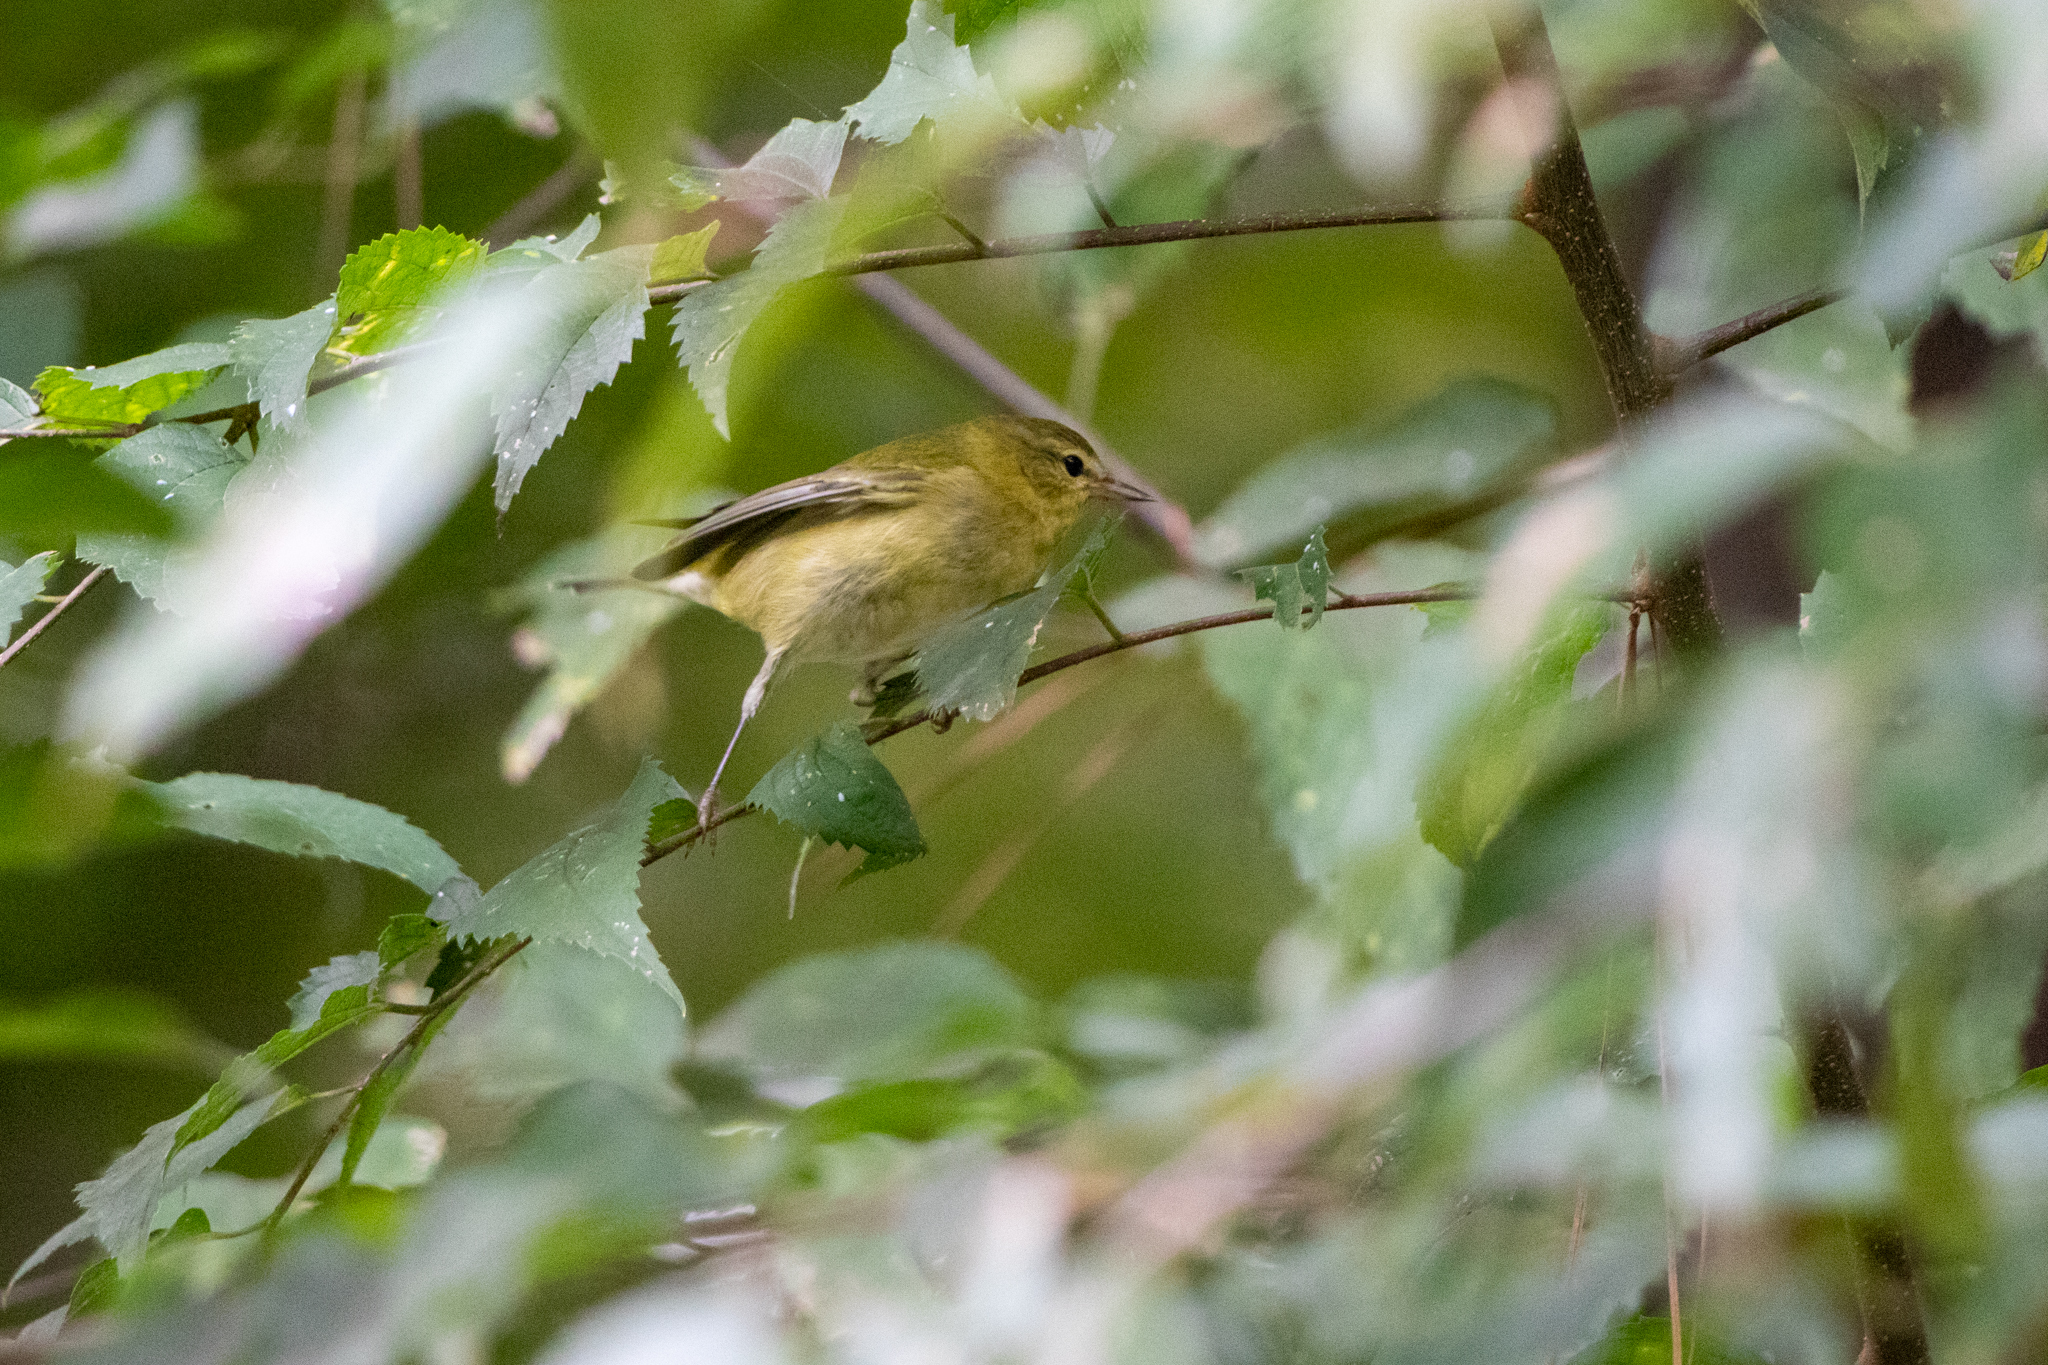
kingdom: Animalia
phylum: Chordata
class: Aves
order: Passeriformes
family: Parulidae
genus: Leiothlypis
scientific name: Leiothlypis peregrina
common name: Tennessee warbler
